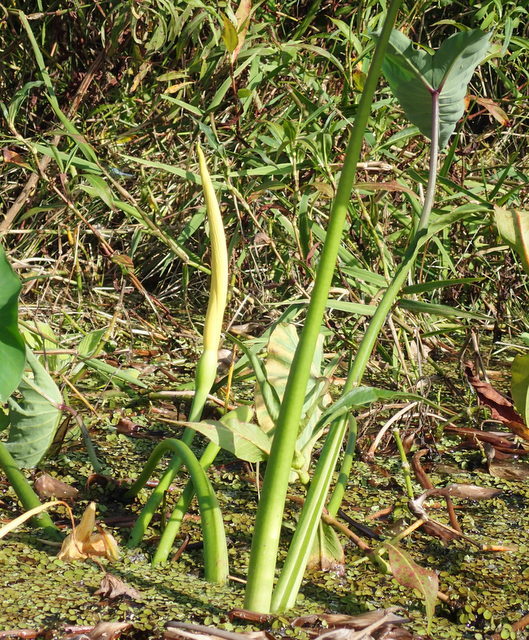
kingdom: Plantae
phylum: Tracheophyta
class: Liliopsida
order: Alismatales
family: Araceae
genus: Colocasia
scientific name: Colocasia esculenta
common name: Taro
